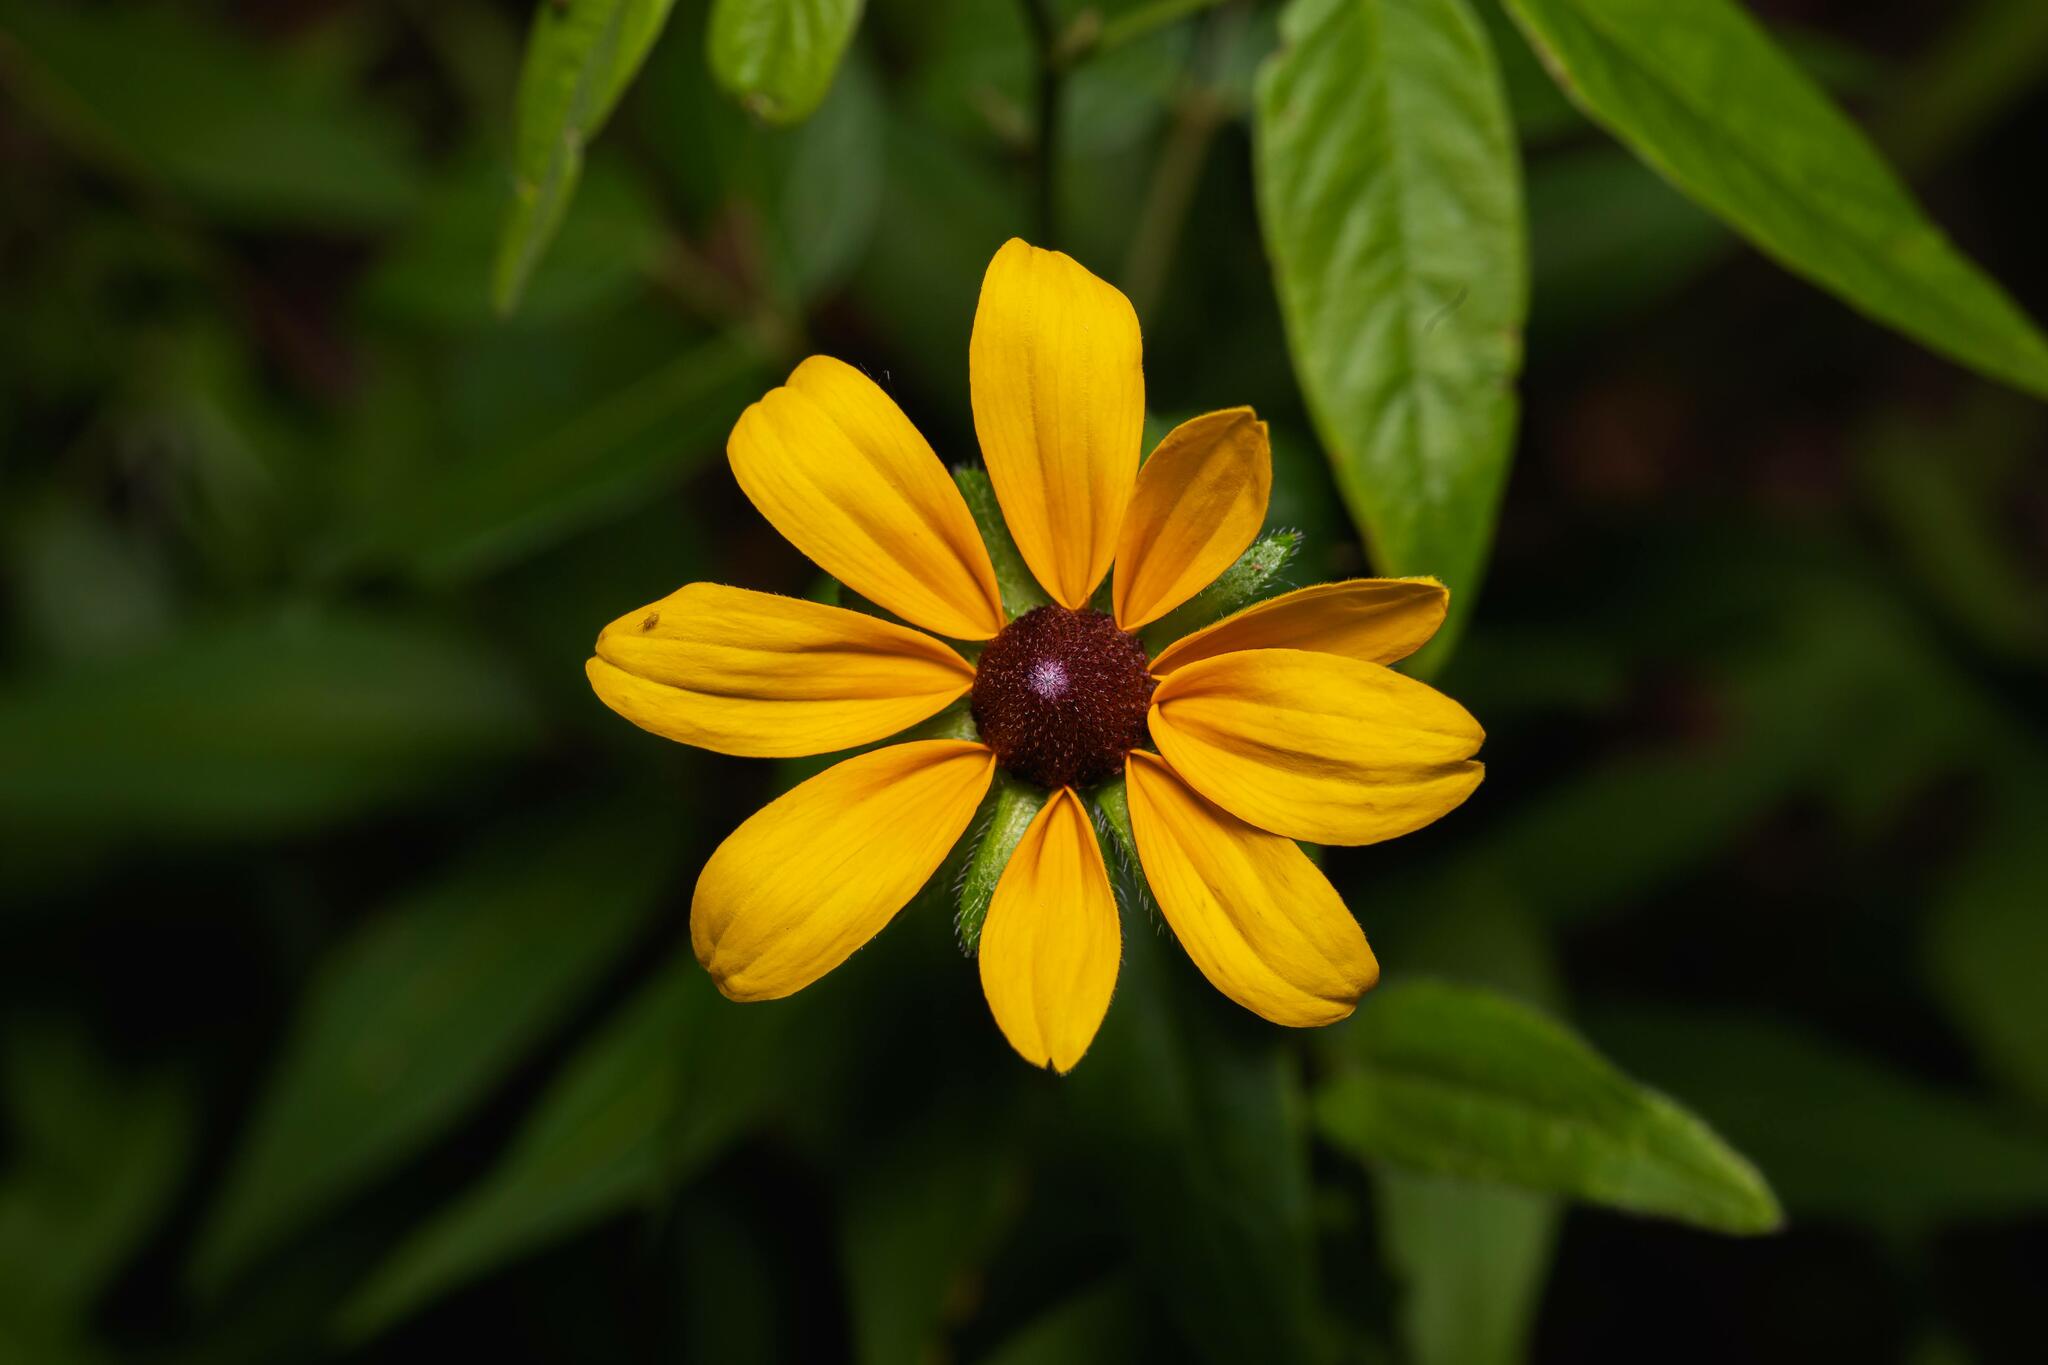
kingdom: Plantae
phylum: Tracheophyta
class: Magnoliopsida
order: Asterales
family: Asteraceae
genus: Rudbeckia
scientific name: Rudbeckia hirta
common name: Black-eyed-susan
